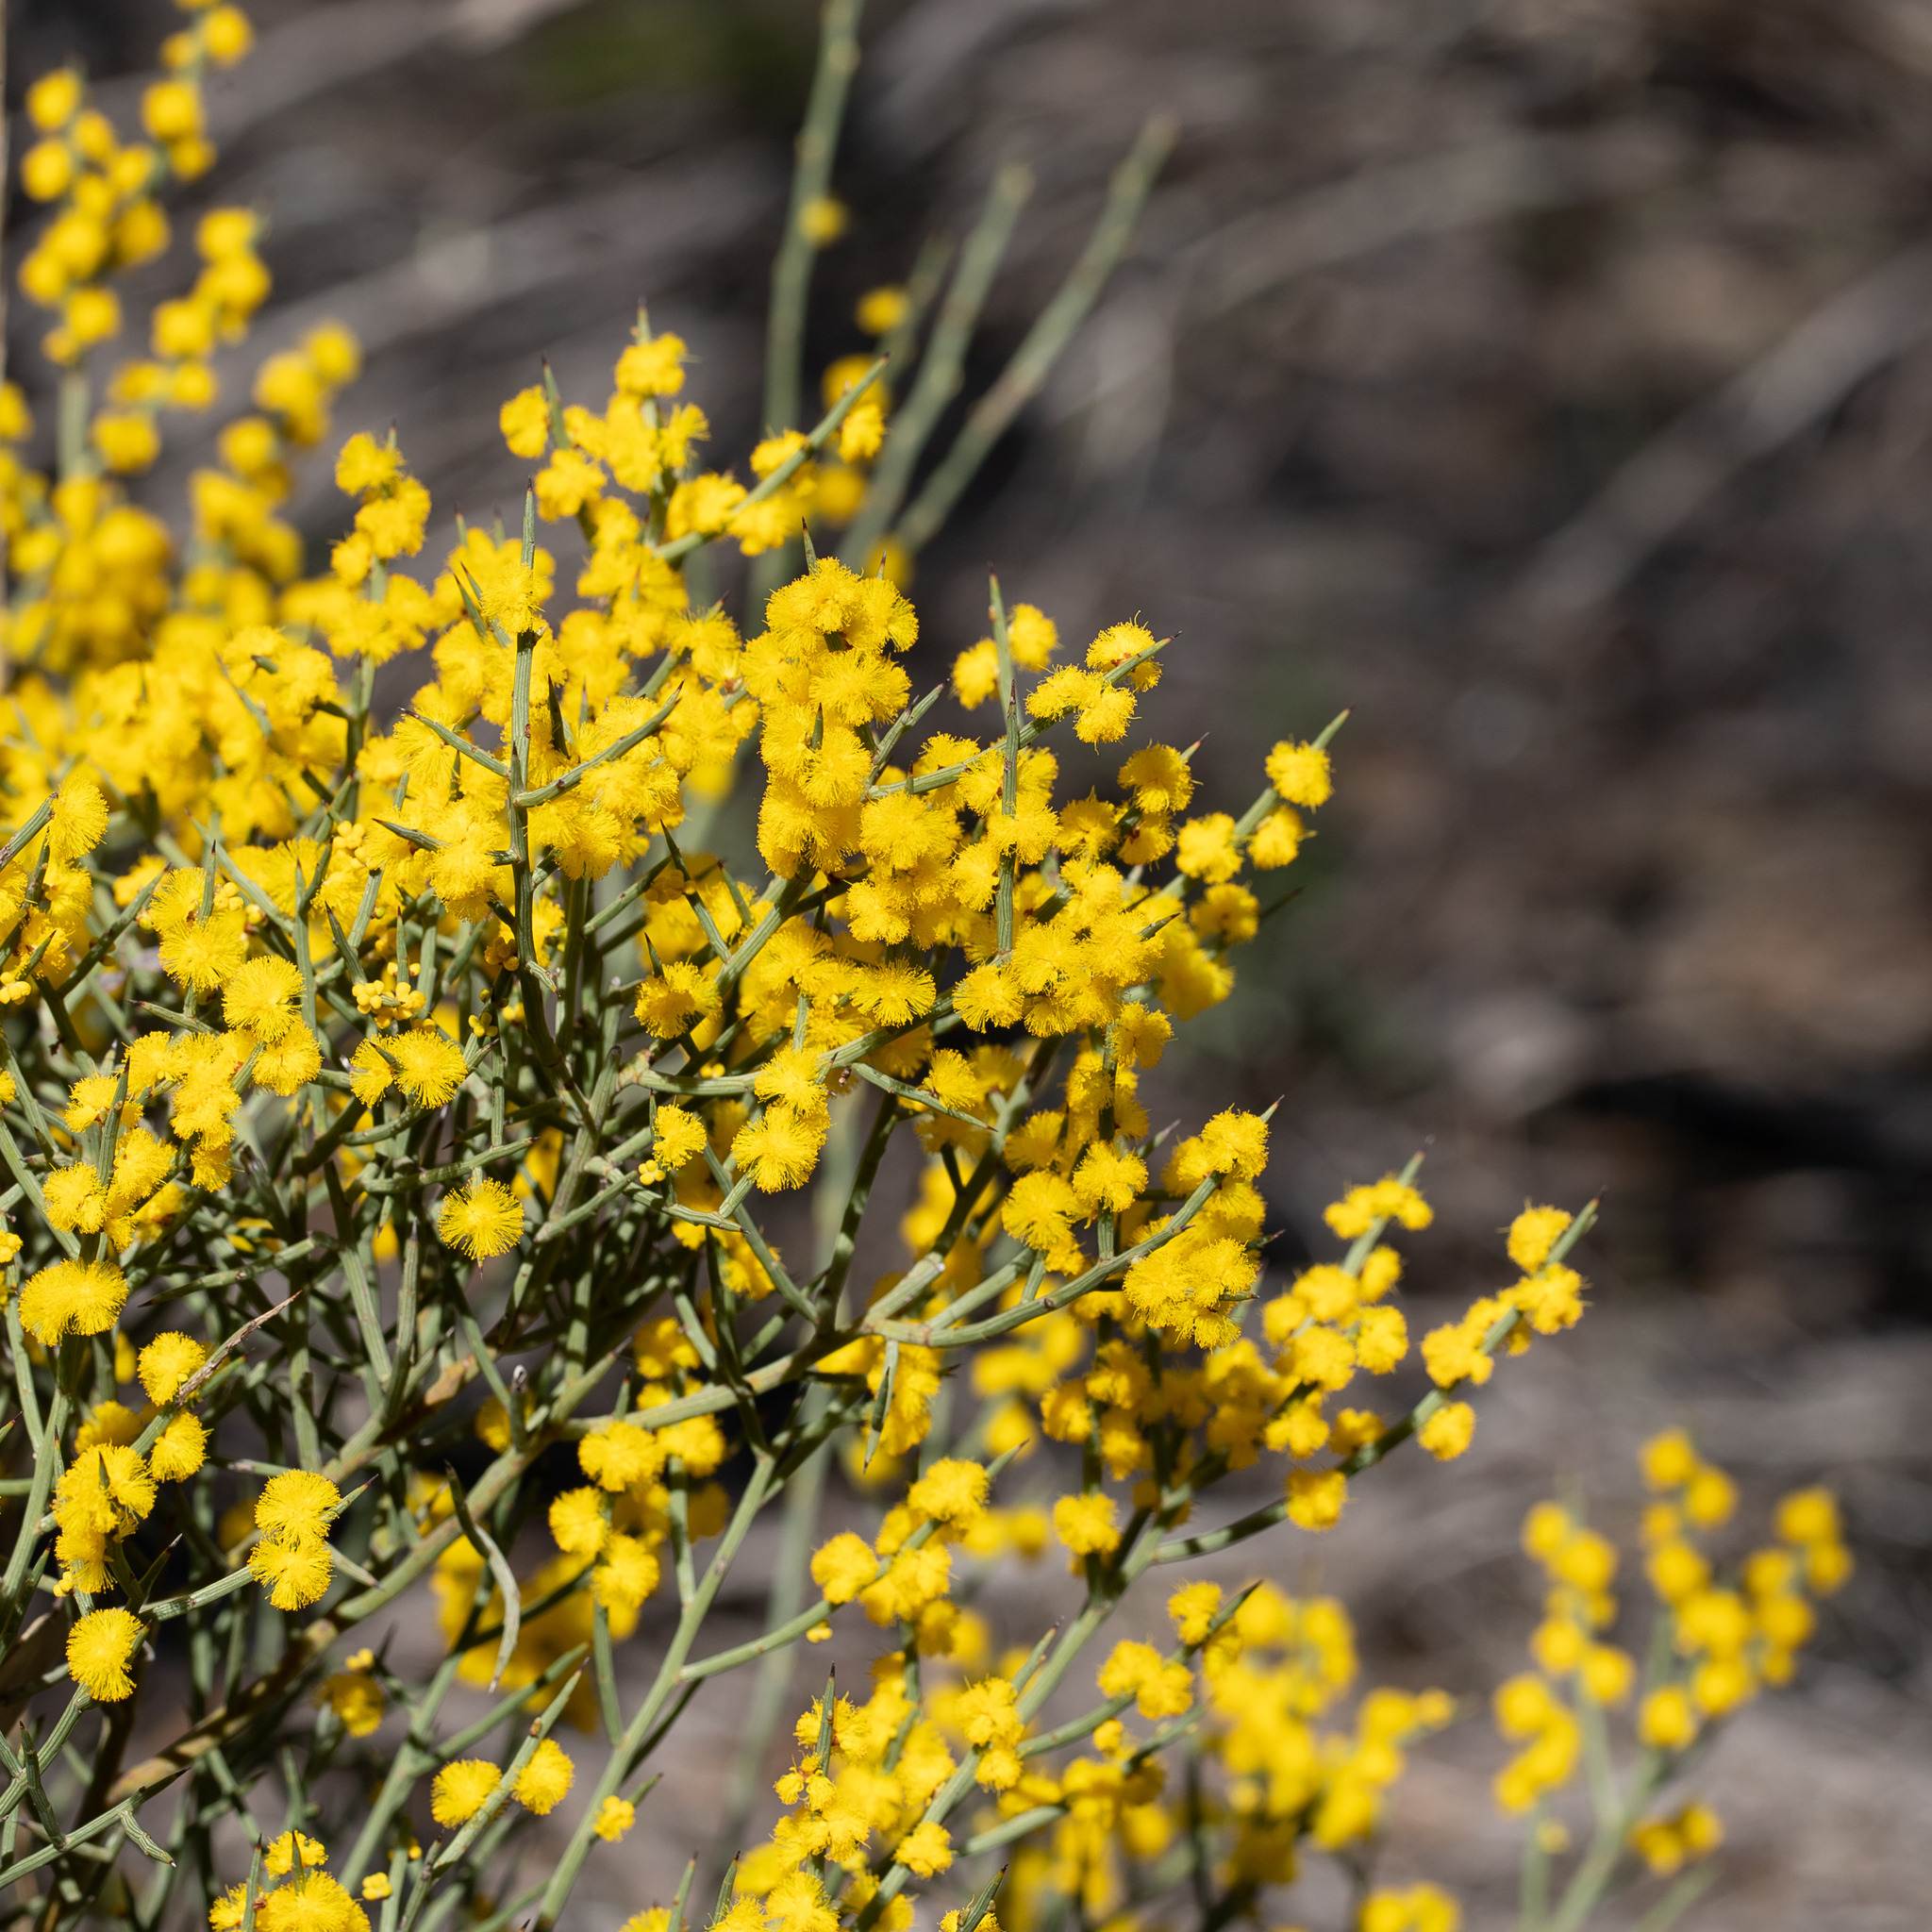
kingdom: Plantae
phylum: Tracheophyta
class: Magnoliopsida
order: Fabales
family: Fabaceae
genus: Acacia
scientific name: Acacia spinescens
